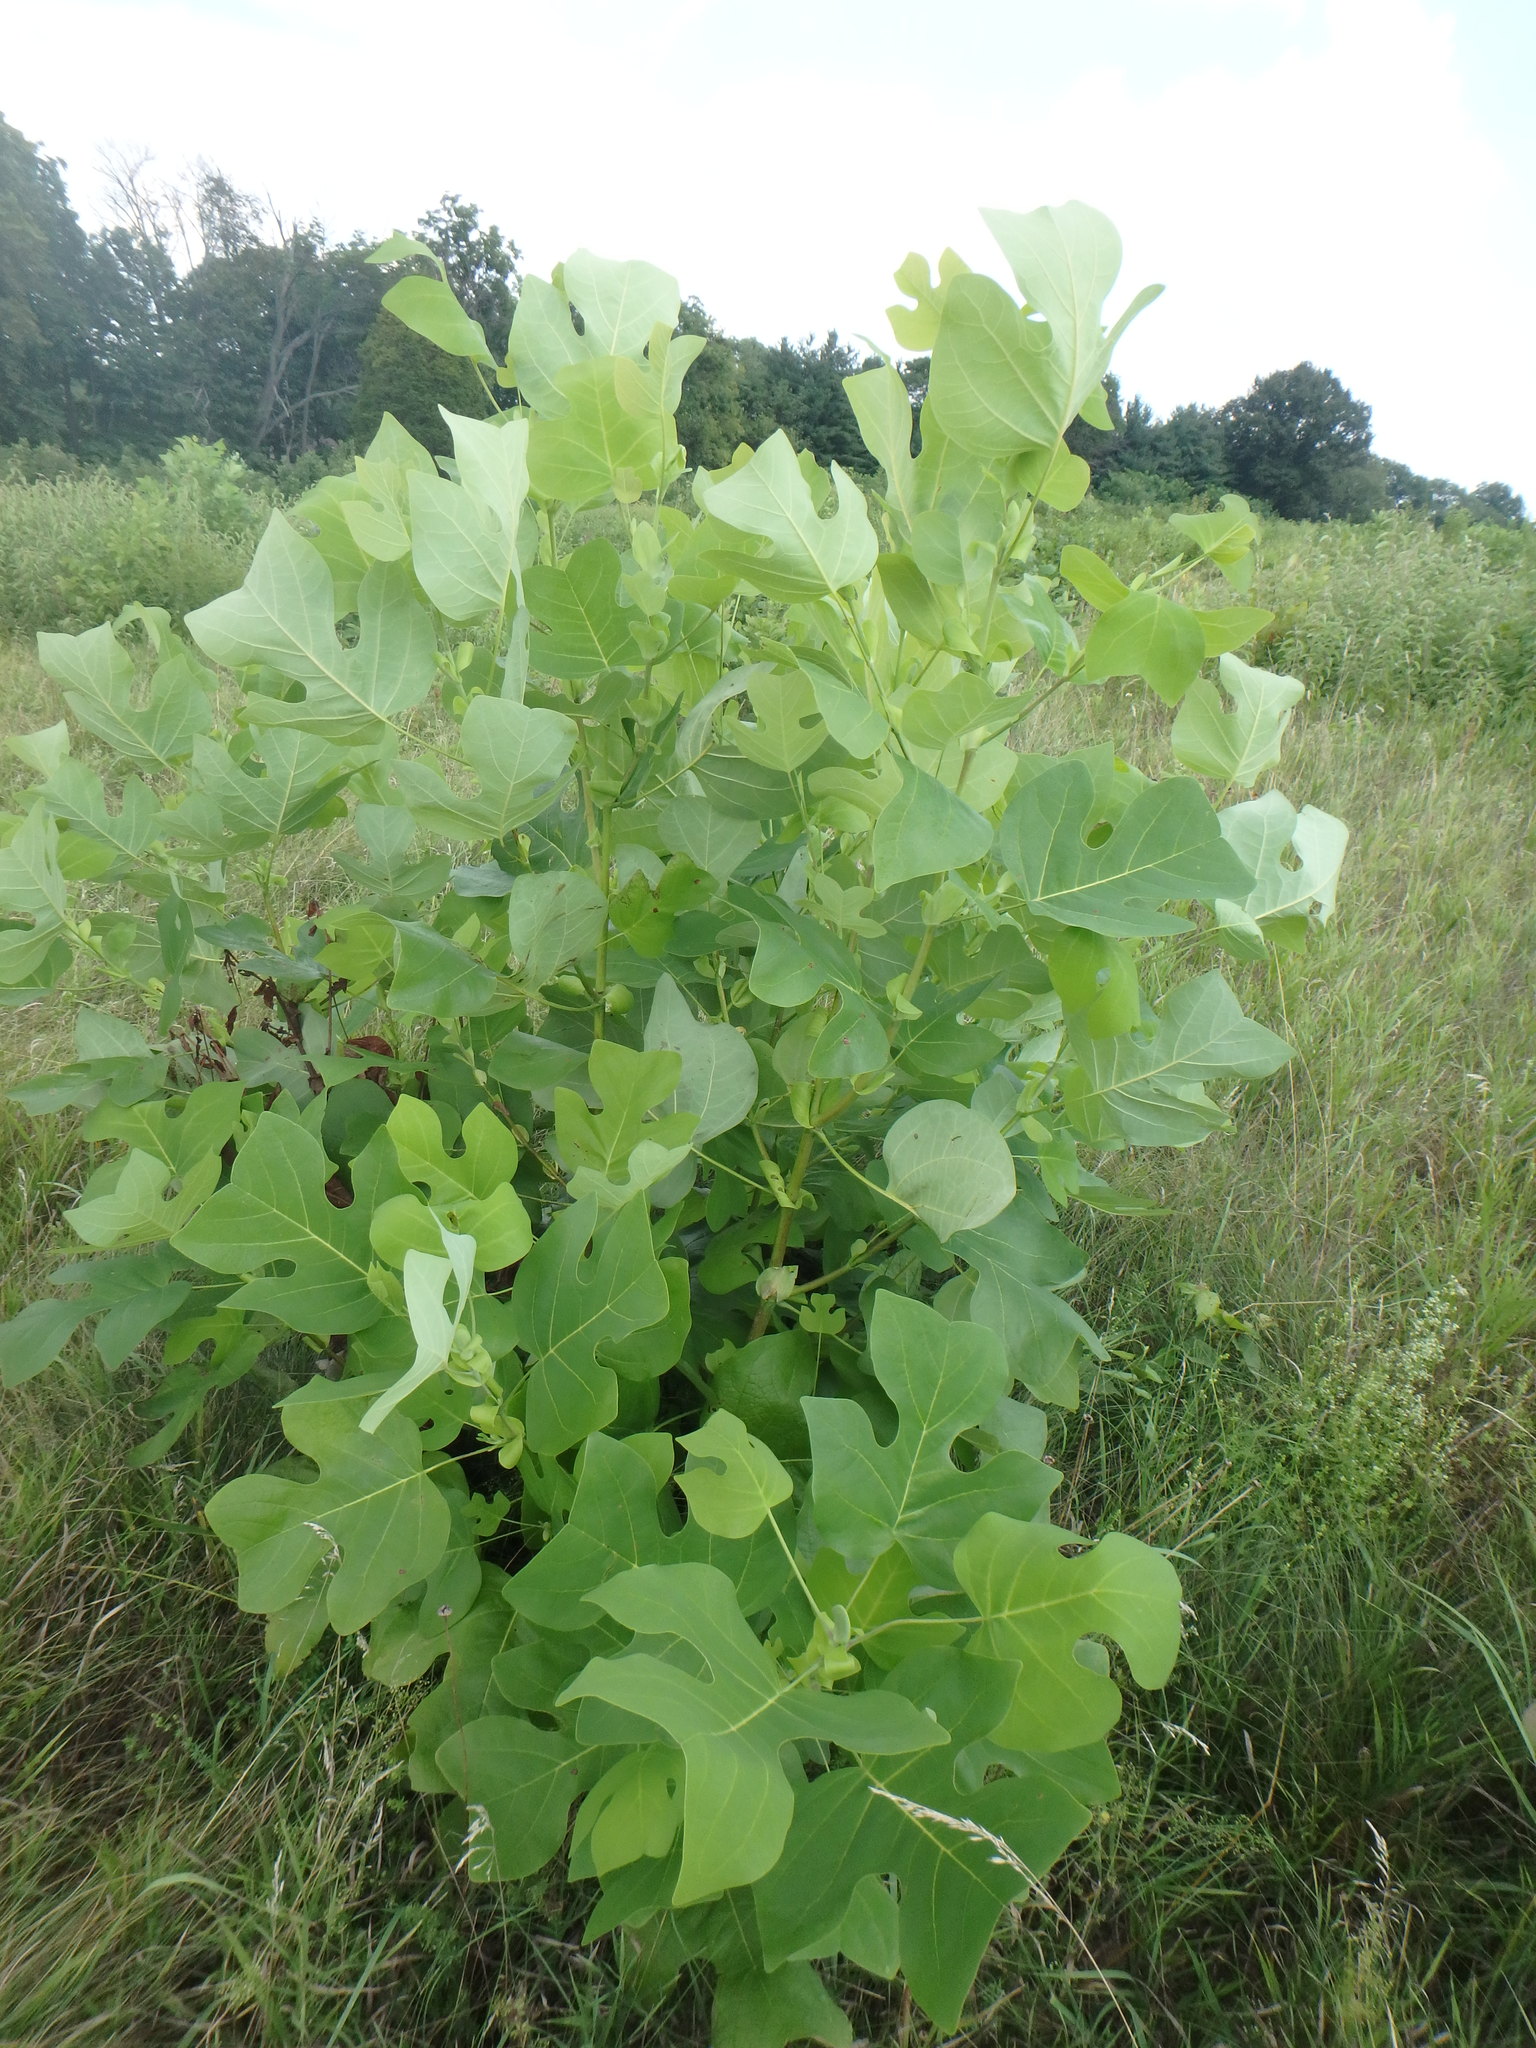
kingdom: Plantae
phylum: Tracheophyta
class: Magnoliopsida
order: Magnoliales
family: Magnoliaceae
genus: Liriodendron
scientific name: Liriodendron tulipifera
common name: Tulip tree
